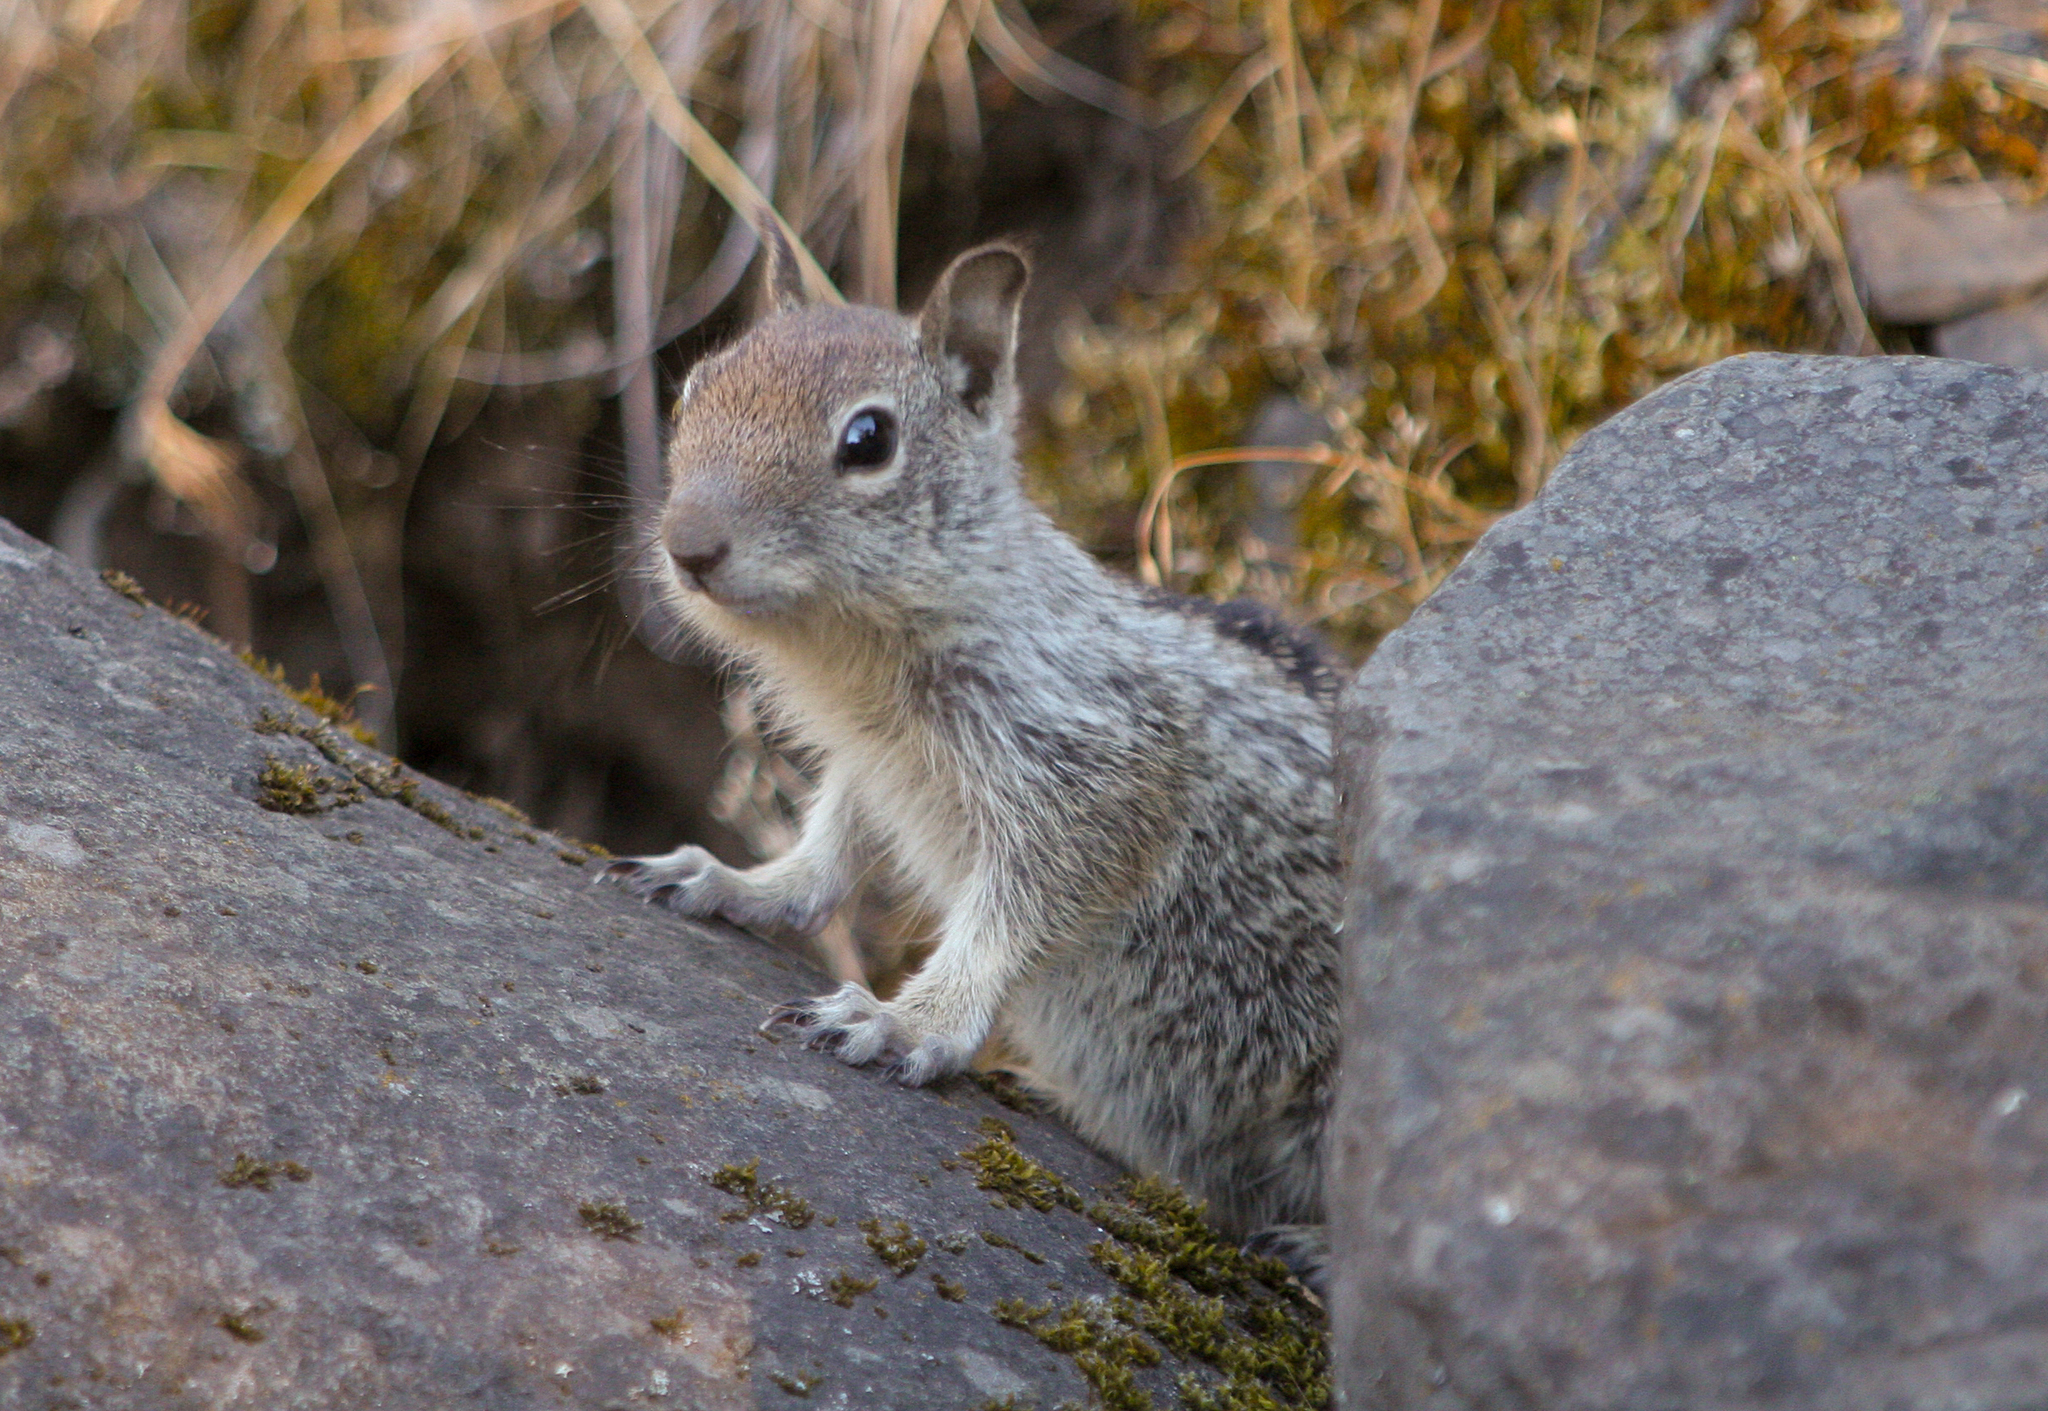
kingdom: Animalia
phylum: Chordata
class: Mammalia
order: Rodentia
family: Sciuridae
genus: Otospermophilus
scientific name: Otospermophilus beecheyi
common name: California ground squirrel
